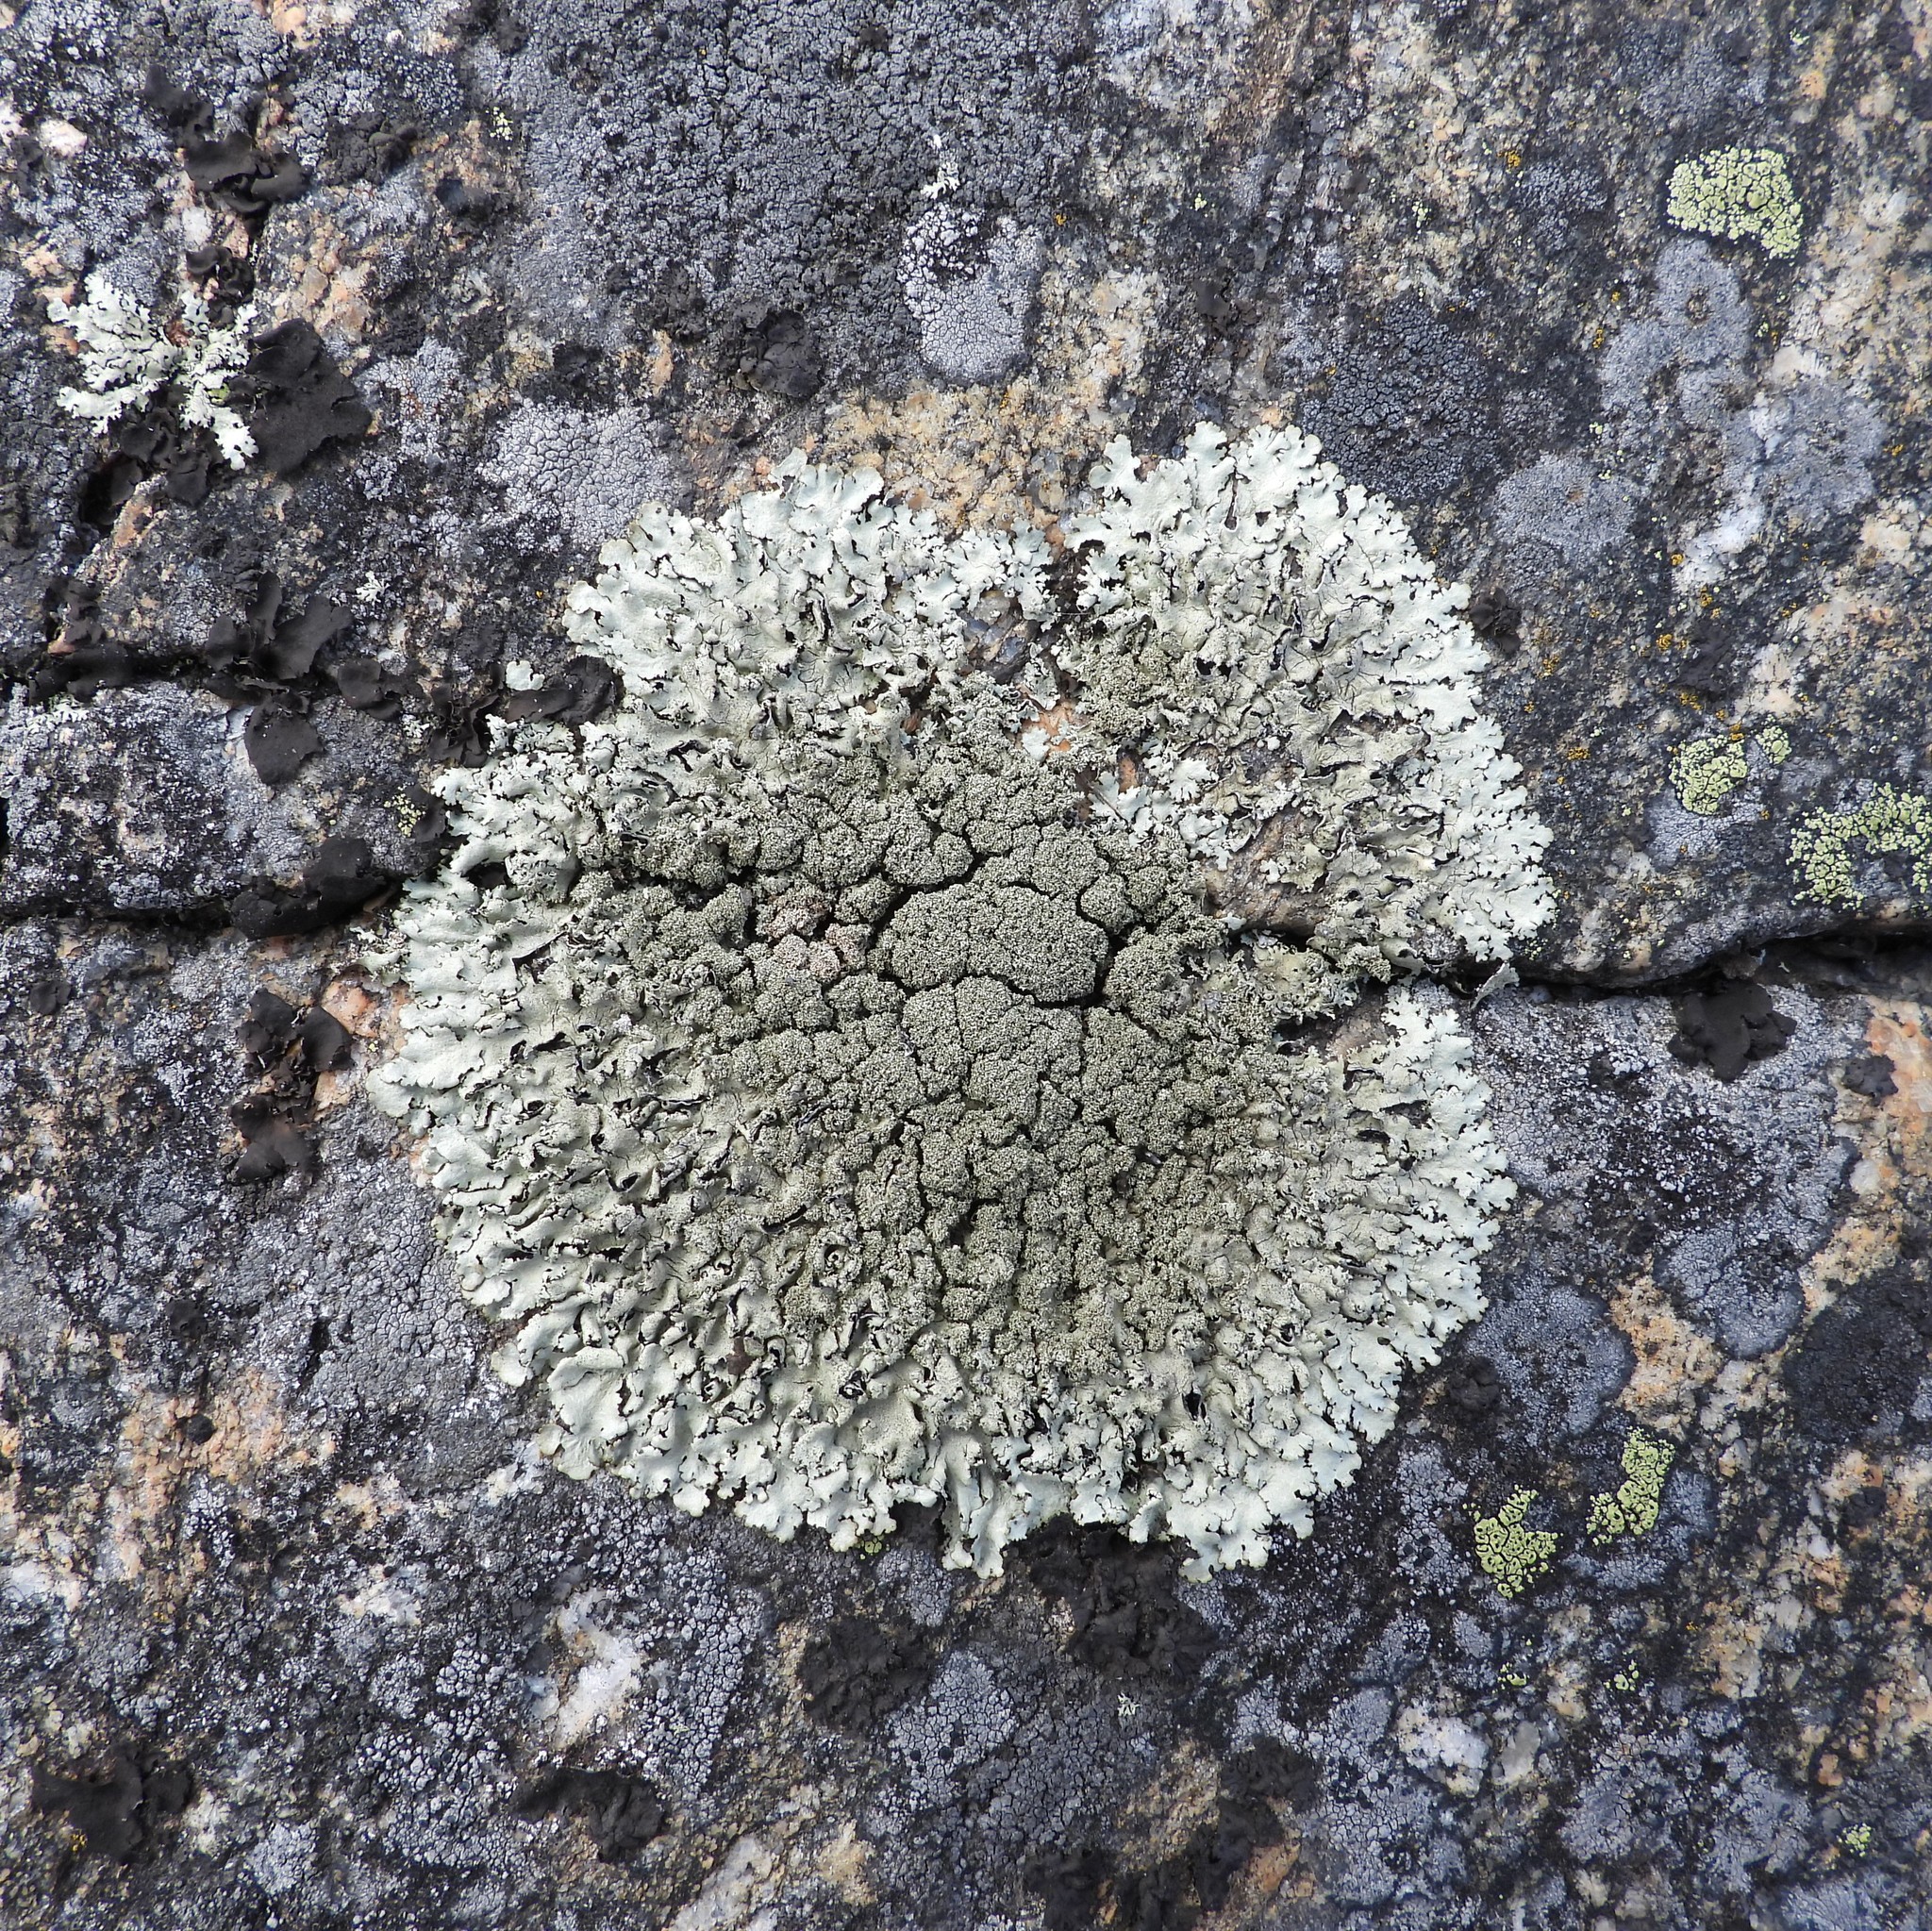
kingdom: Fungi
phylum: Ascomycota
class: Lecanoromycetes
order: Lecanorales
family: Parmeliaceae
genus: Xanthoparmelia
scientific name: Xanthoparmelia conspersa
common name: Peppered rock shield
